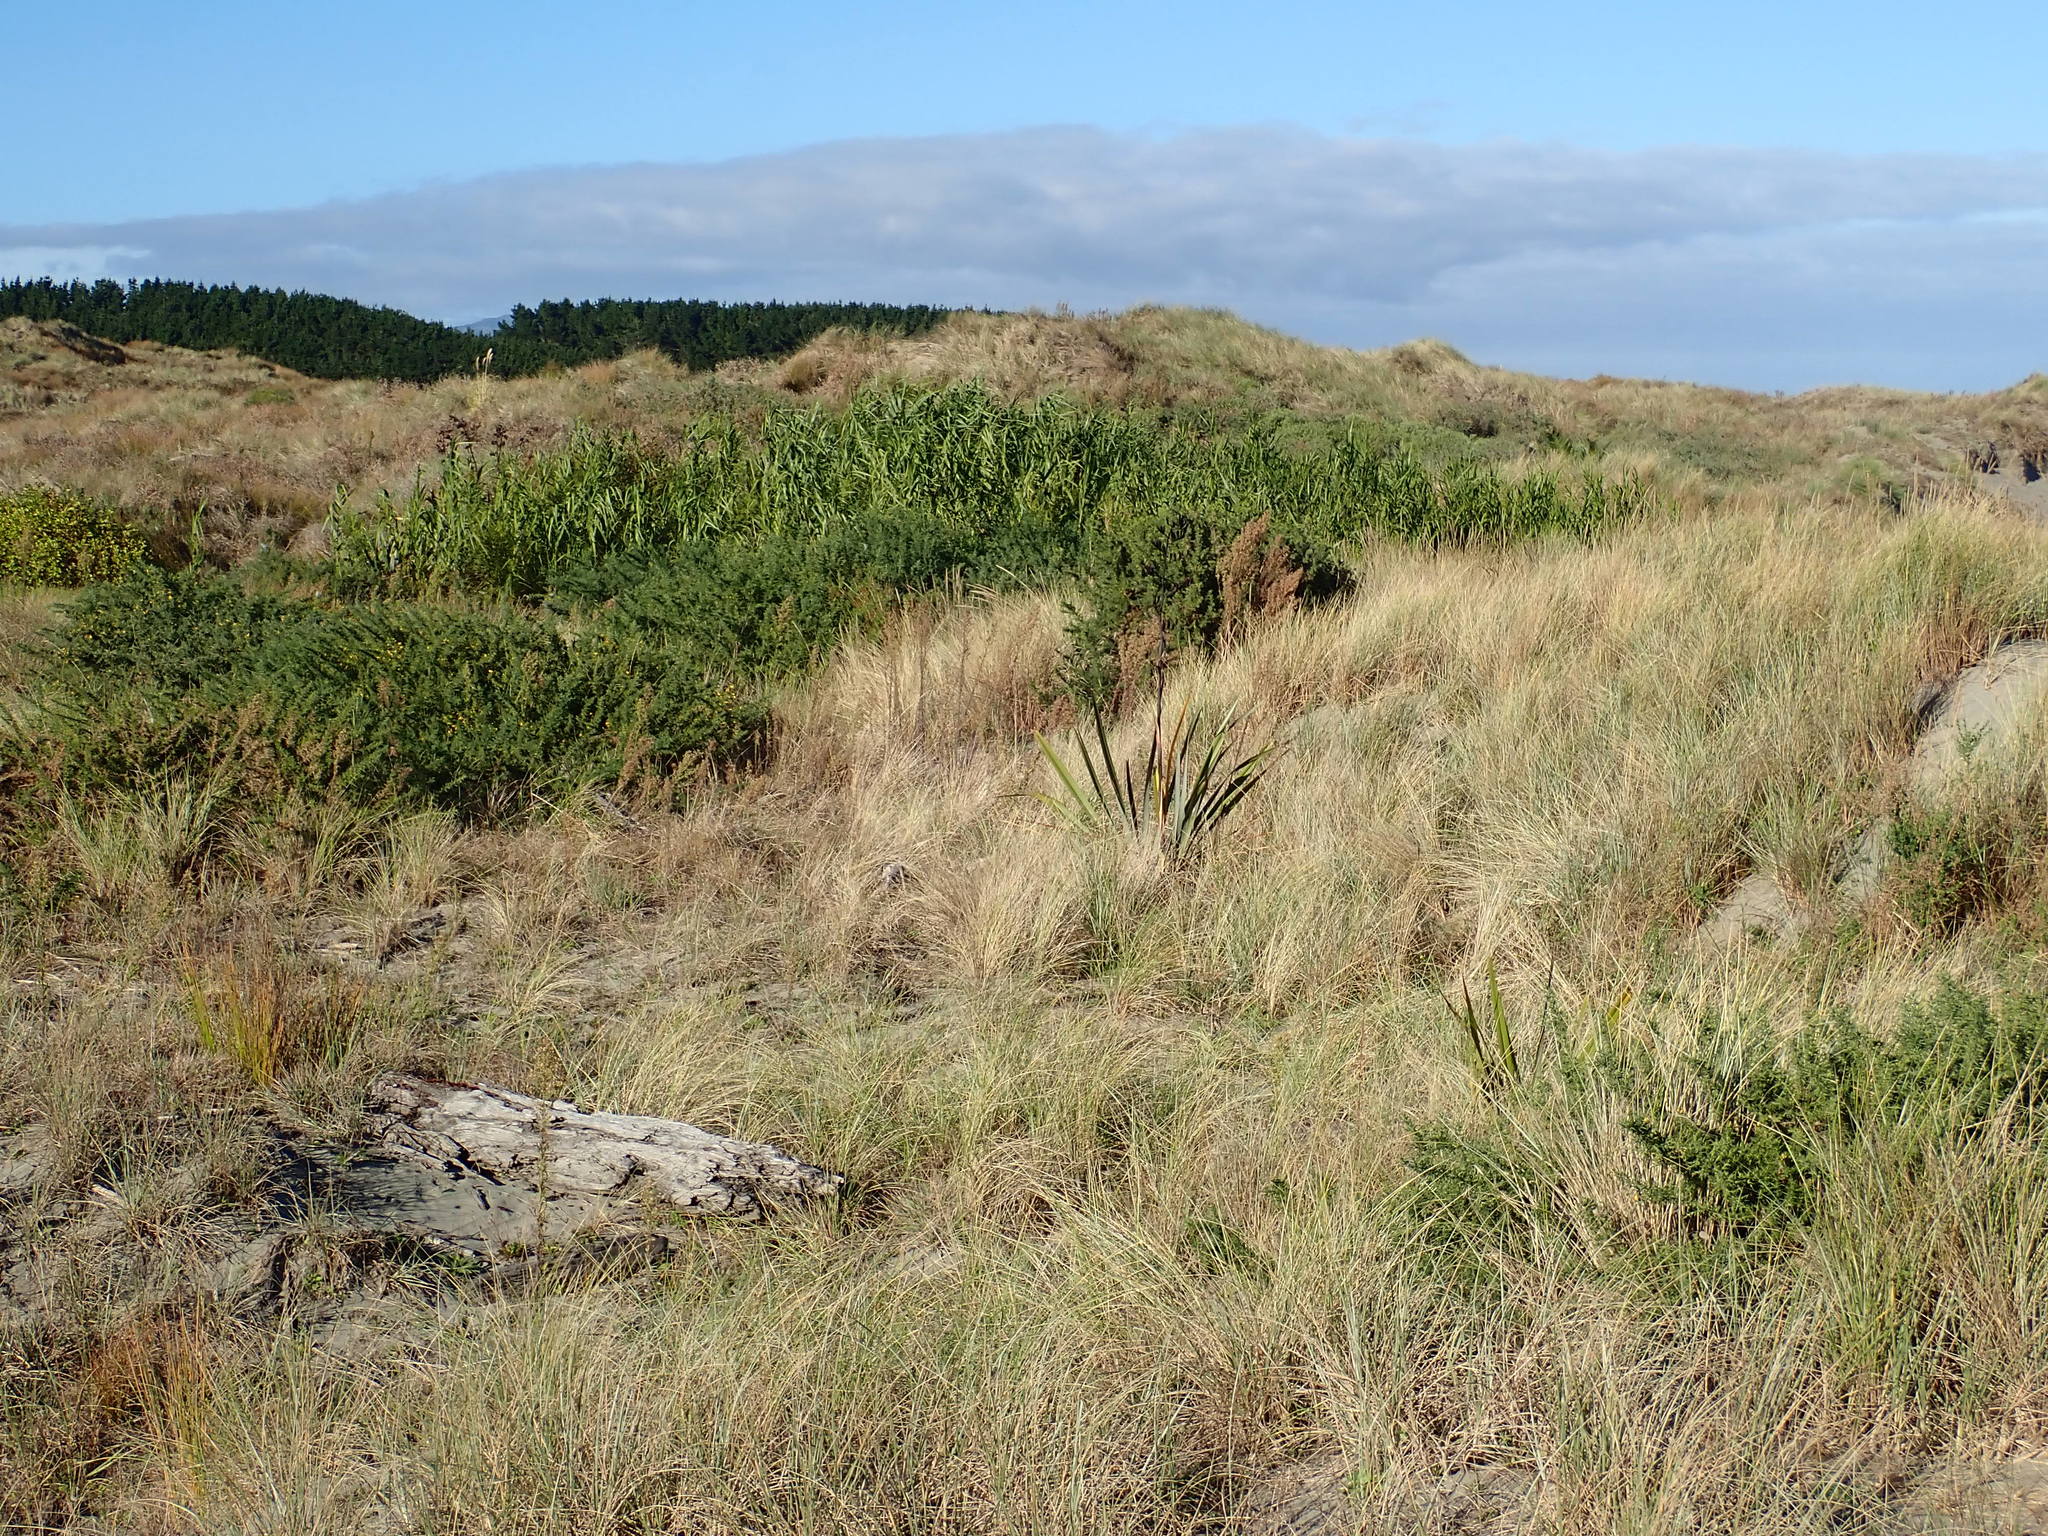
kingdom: Plantae
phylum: Tracheophyta
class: Liliopsida
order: Asparagales
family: Asphodelaceae
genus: Phormium
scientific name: Phormium tenax
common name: New zealand flax
